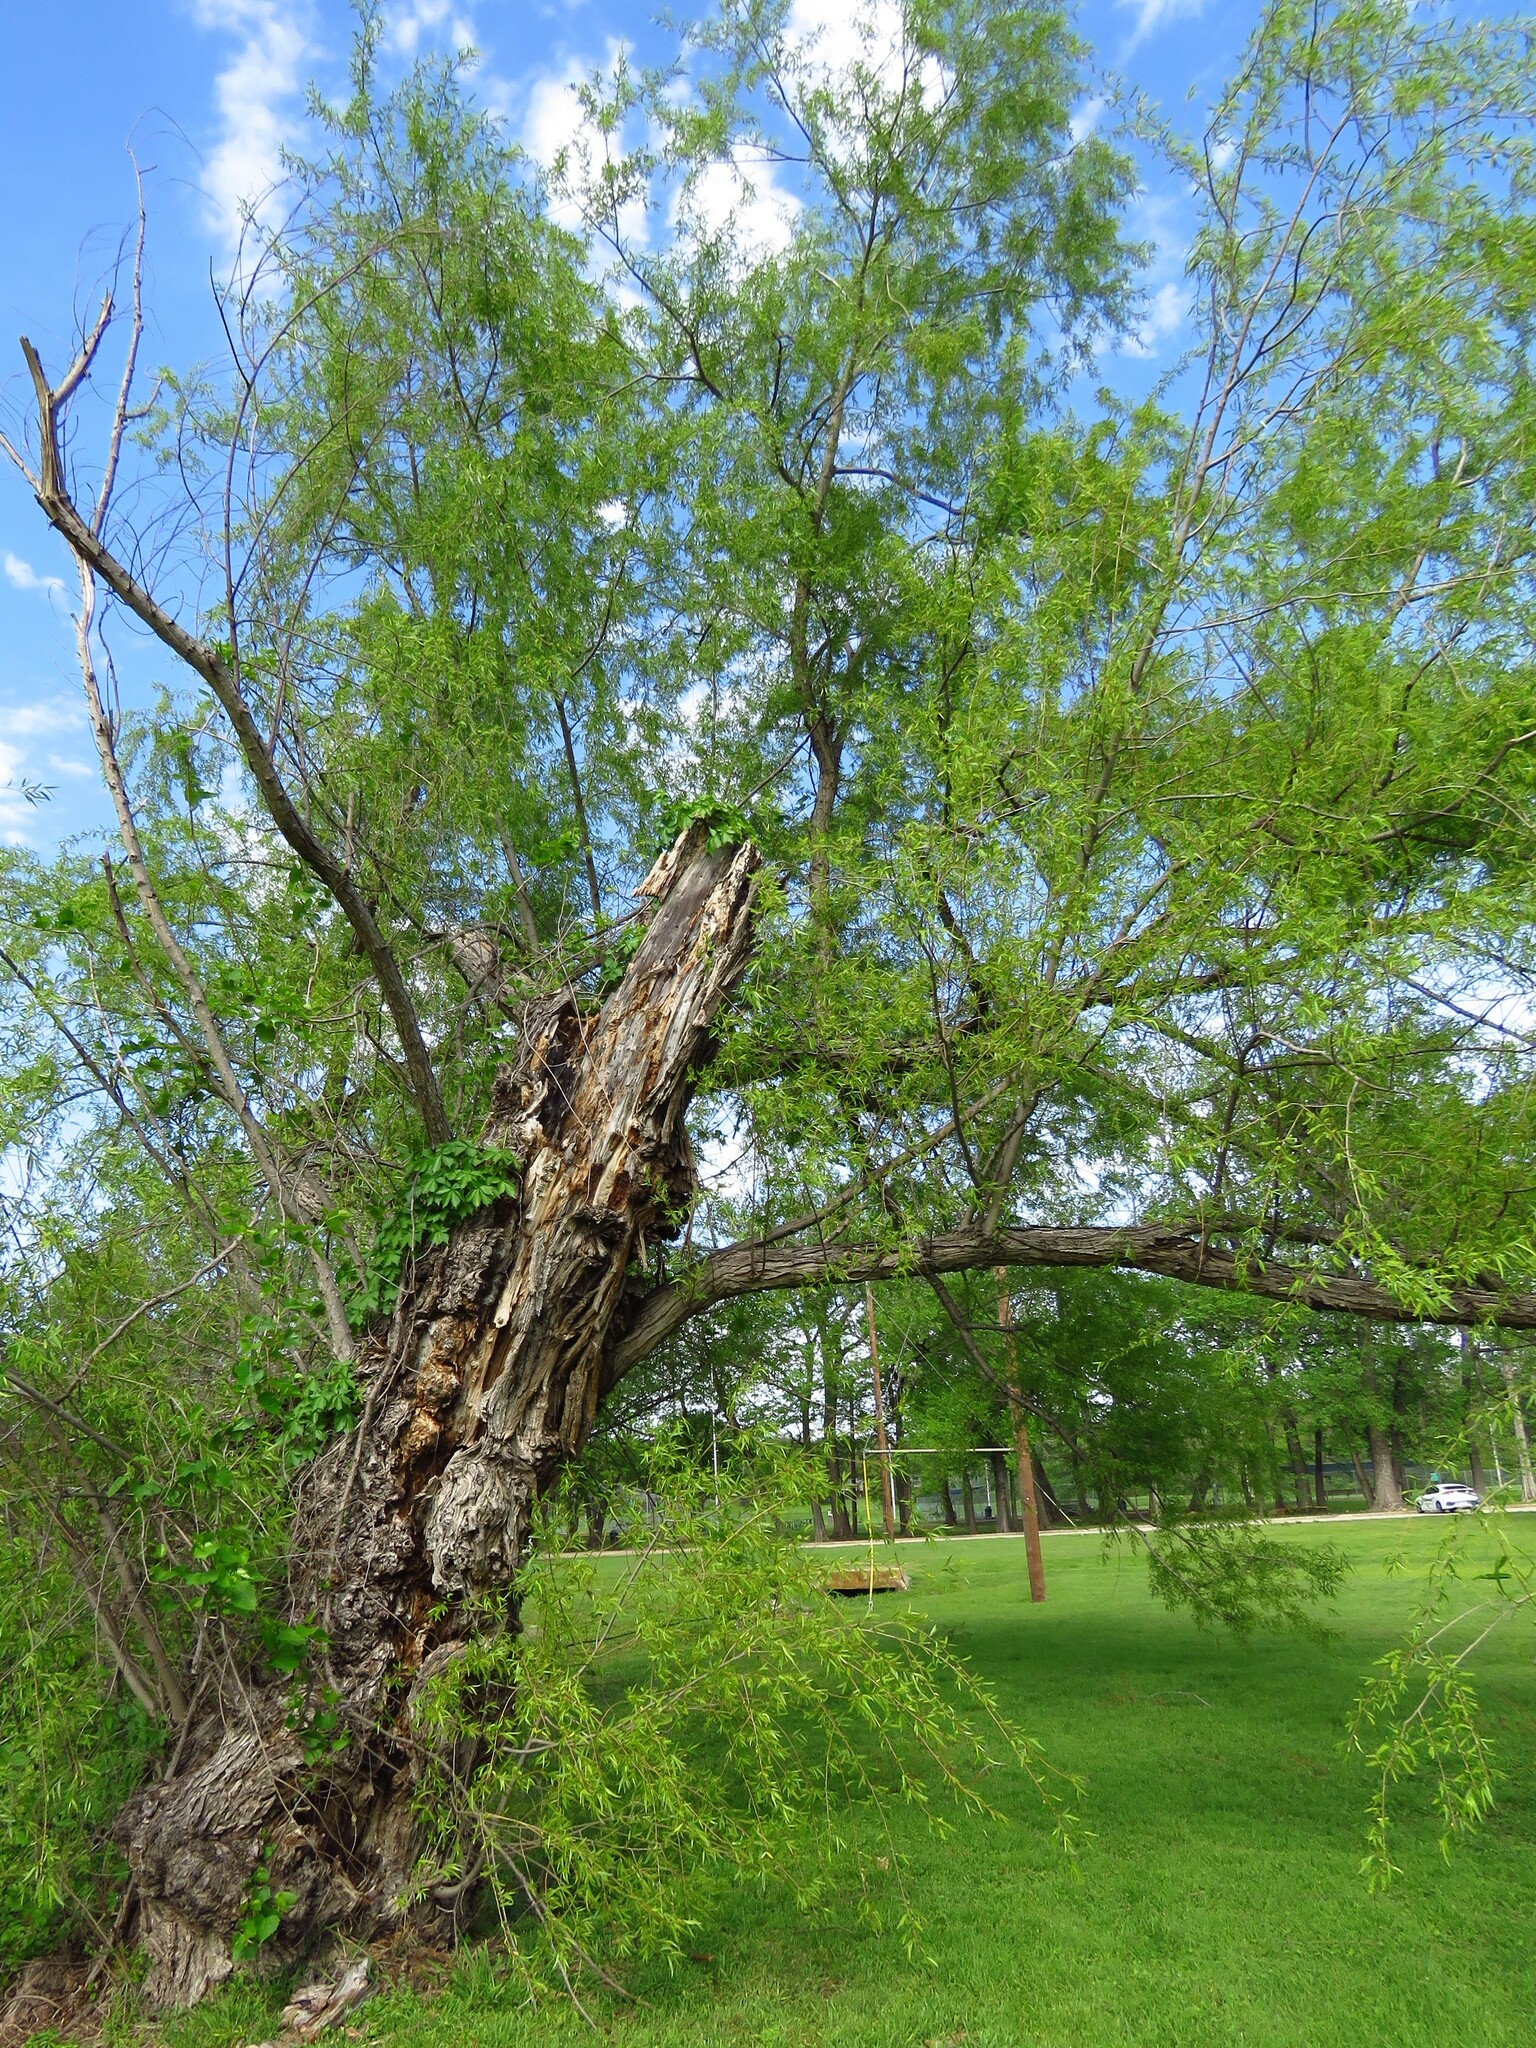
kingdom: Plantae
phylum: Tracheophyta
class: Magnoliopsida
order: Malpighiales
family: Salicaceae
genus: Salix
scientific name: Salix nigra
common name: Black willow
